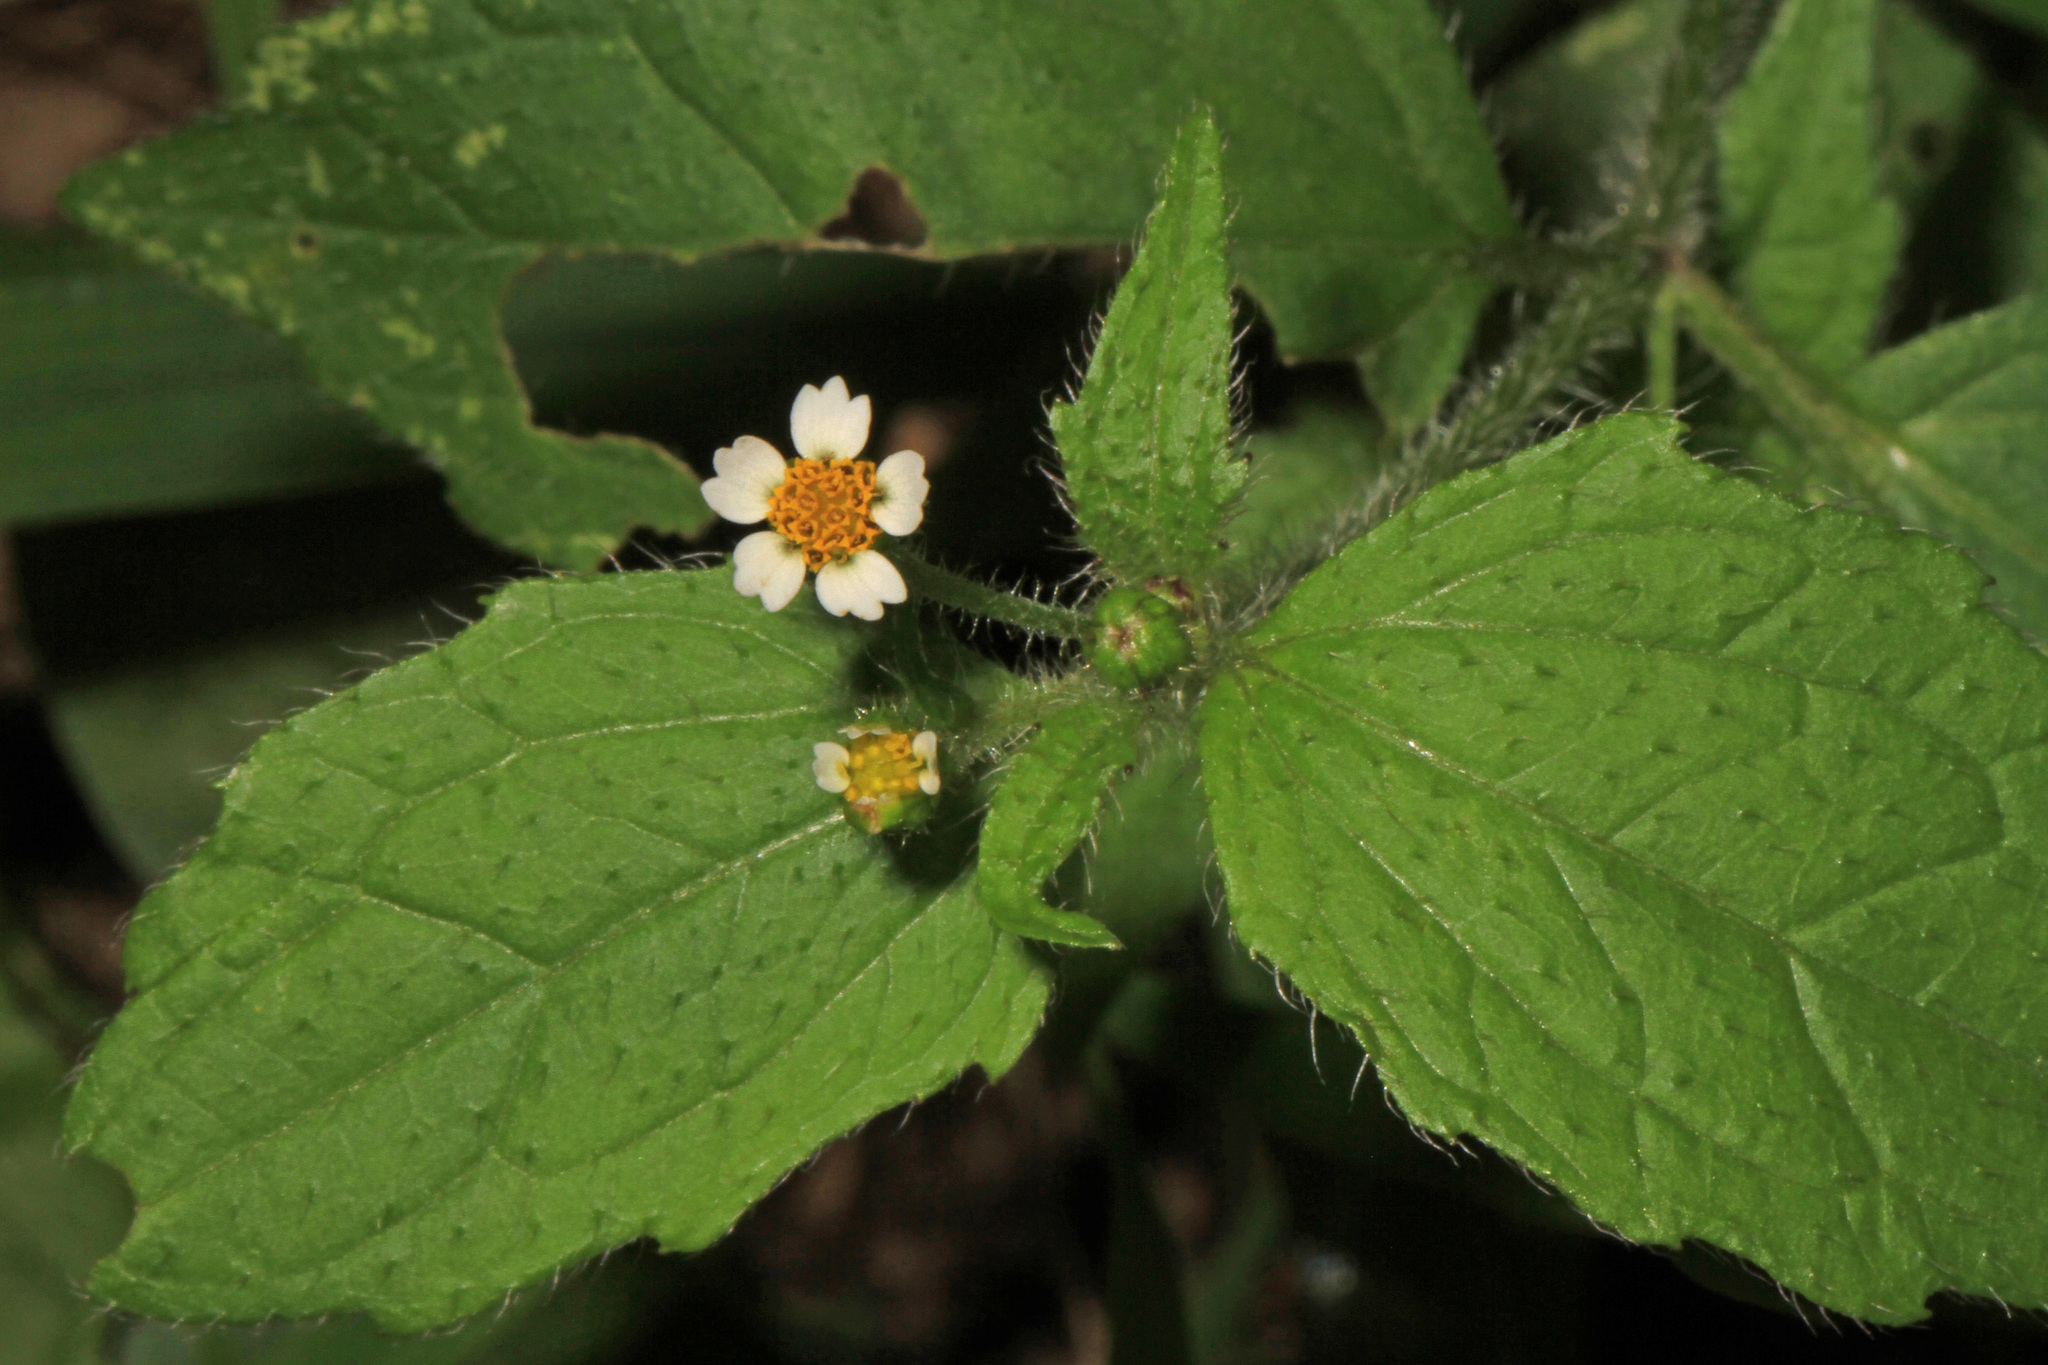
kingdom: Plantae
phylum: Tracheophyta
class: Magnoliopsida
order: Asterales
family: Asteraceae
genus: Galinsoga
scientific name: Galinsoga quadriradiata
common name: Shaggy soldier
